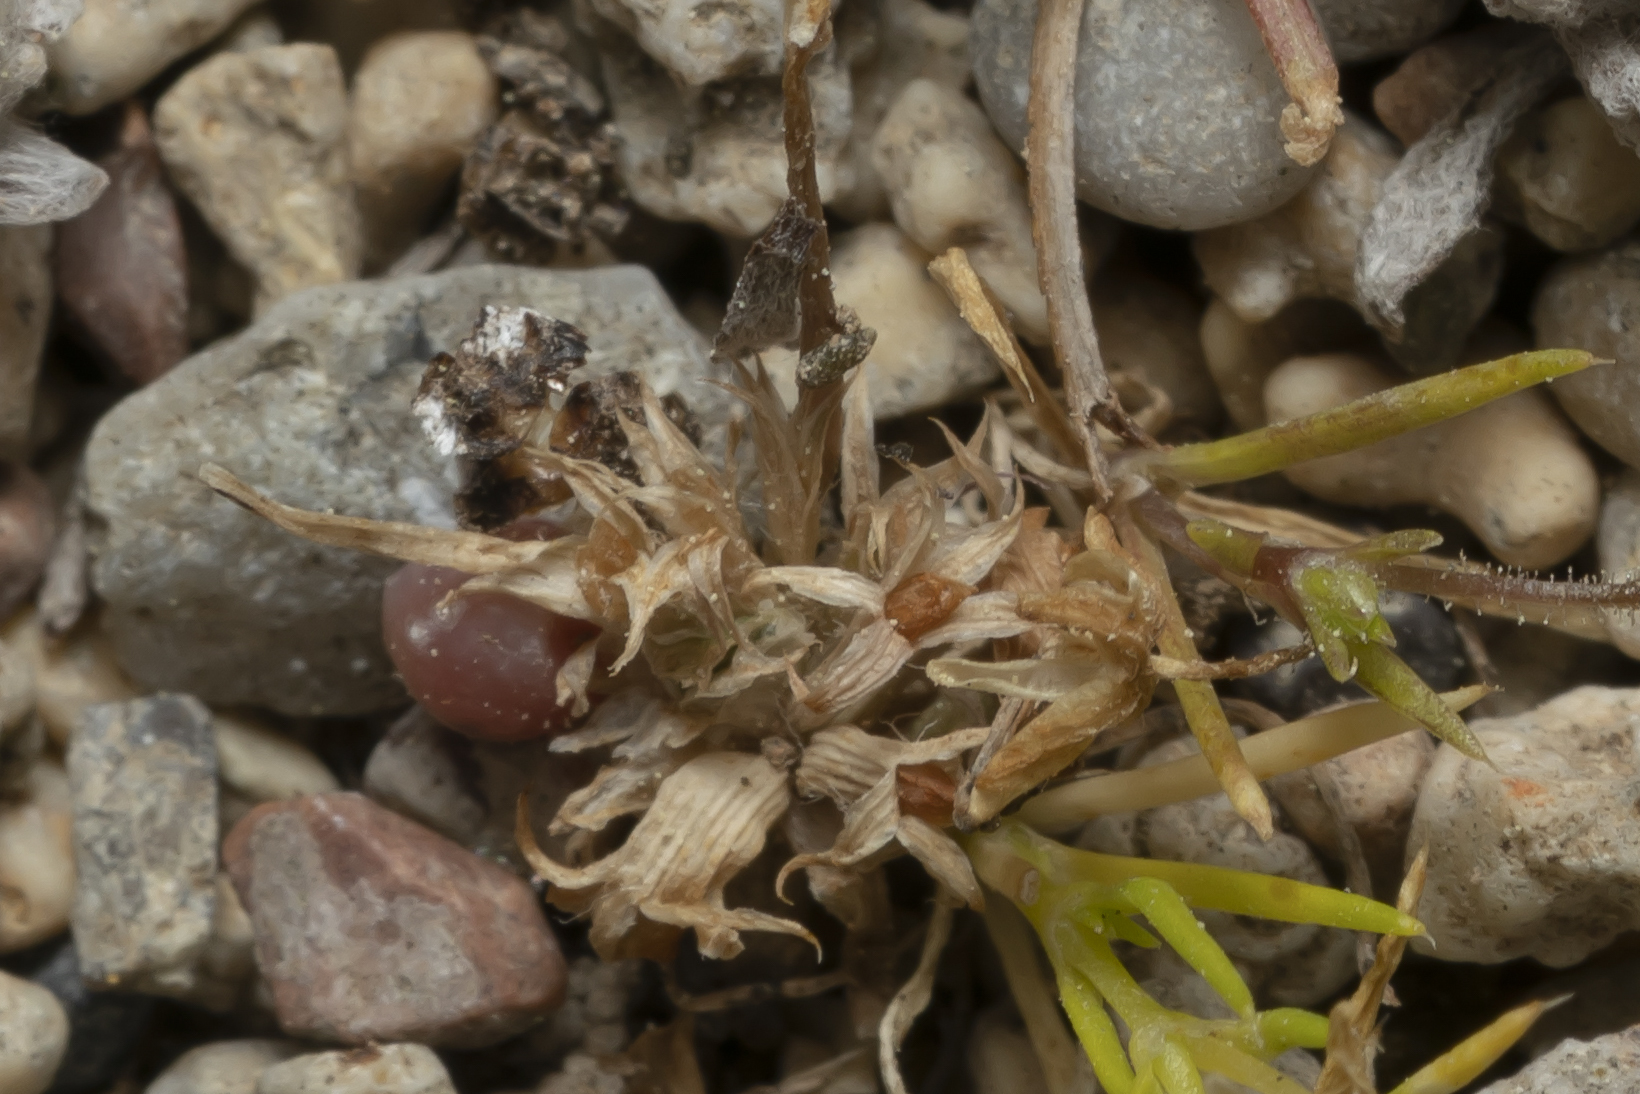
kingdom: Plantae
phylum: Tracheophyta
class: Magnoliopsida
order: Fabales
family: Fabaceae
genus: Trifolium
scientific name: Trifolium suffocatum
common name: Suffocated clover
